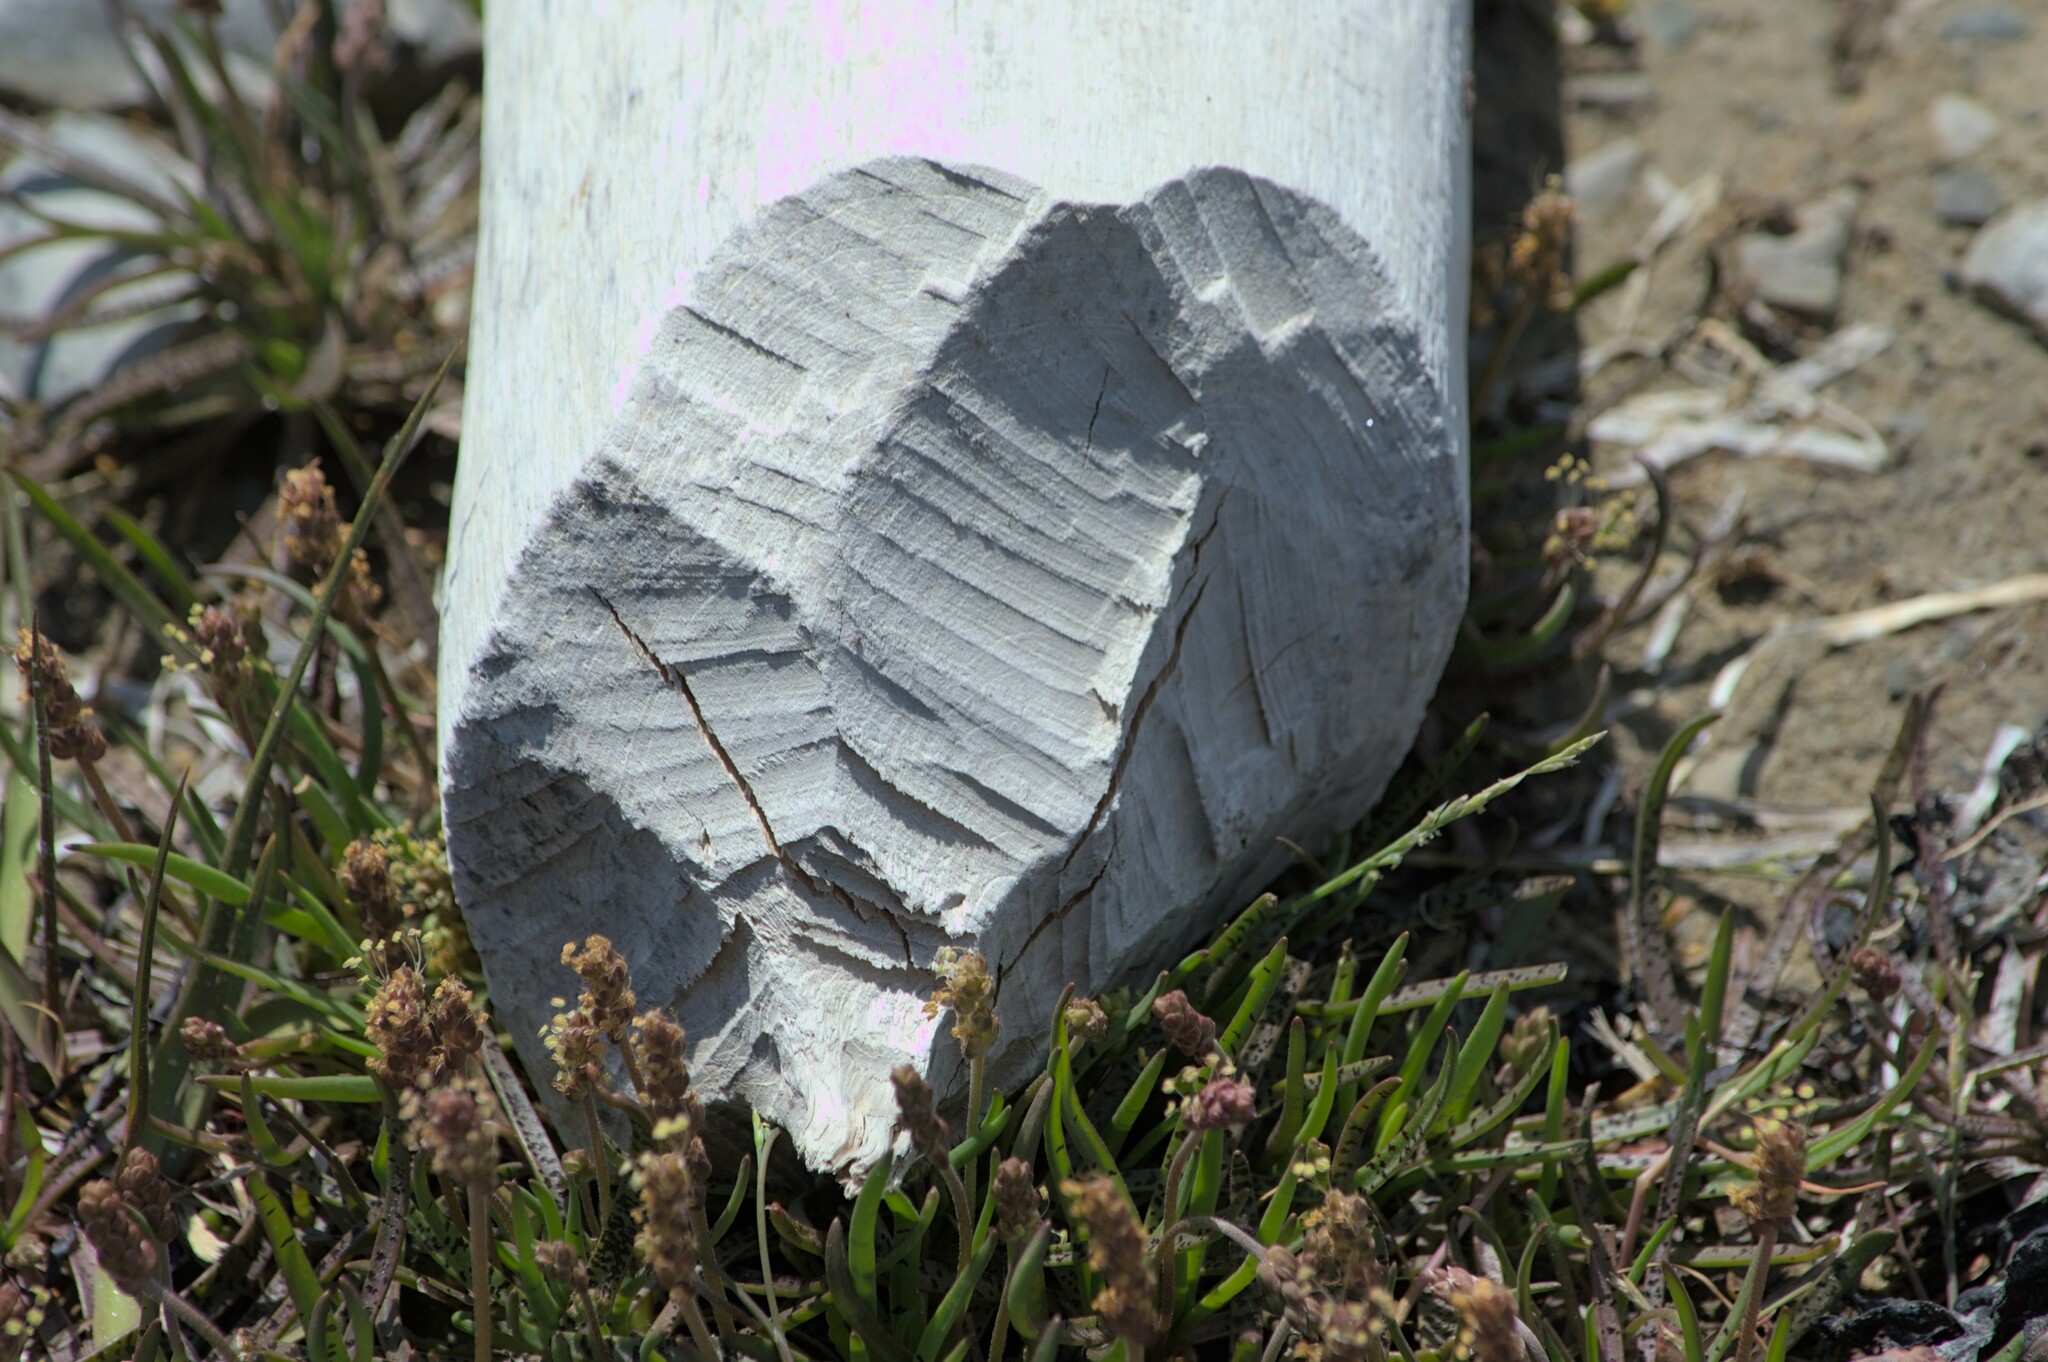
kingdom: Animalia
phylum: Chordata
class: Mammalia
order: Rodentia
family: Castoridae
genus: Castor
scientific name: Castor canadensis
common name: American beaver
